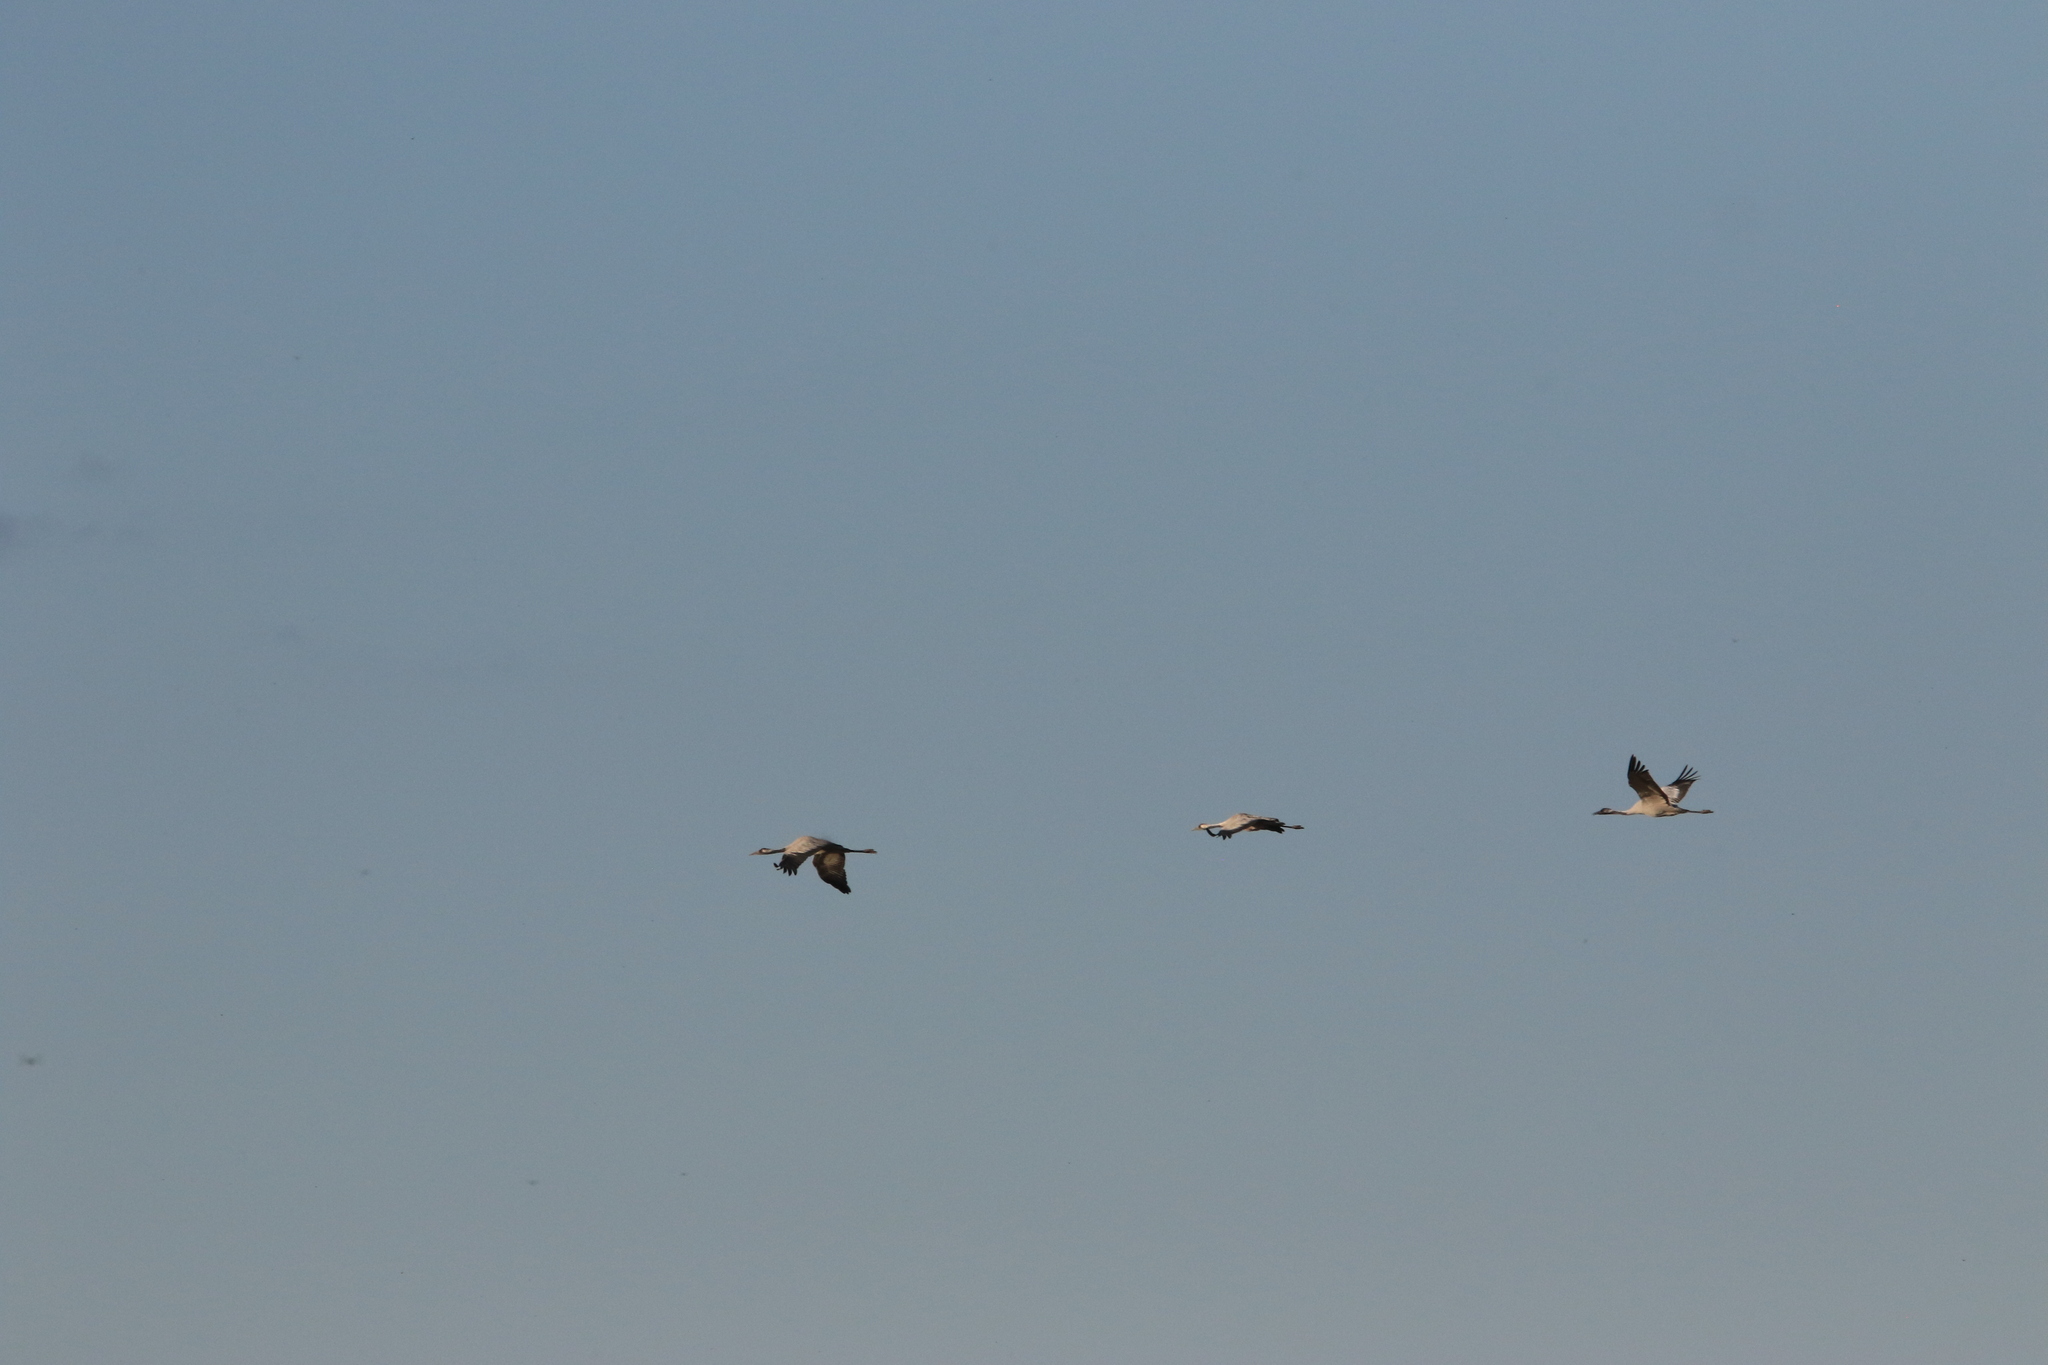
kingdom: Animalia
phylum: Chordata
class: Aves
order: Gruiformes
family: Gruidae
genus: Grus
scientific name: Grus grus
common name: Common crane
